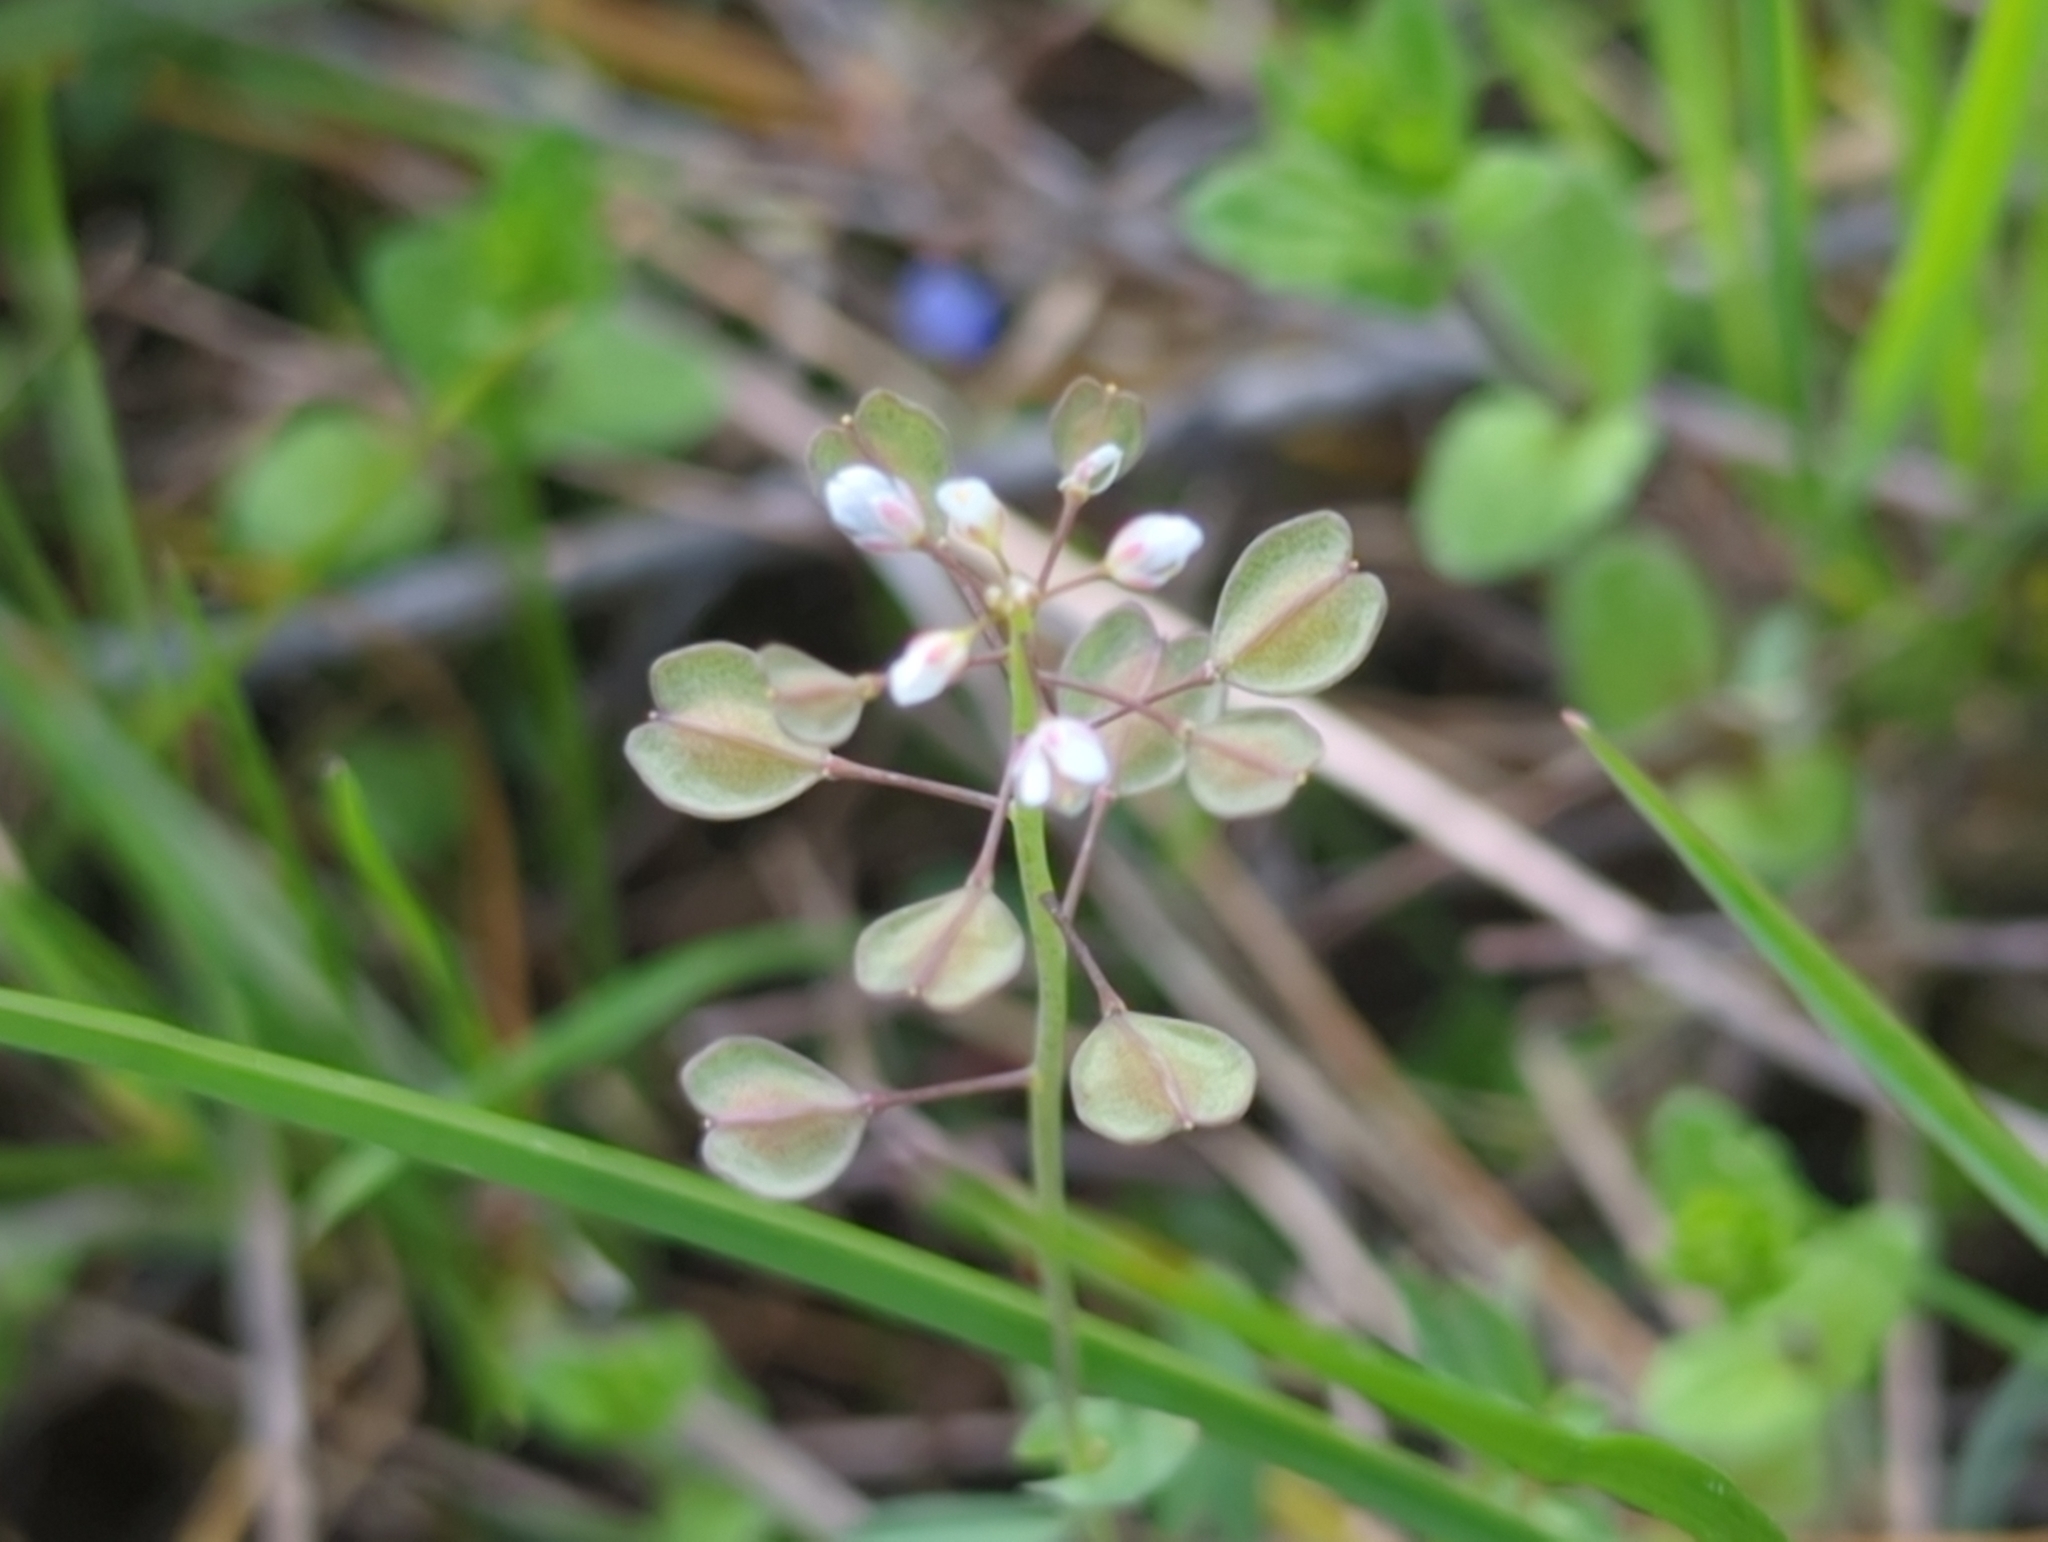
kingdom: Plantae
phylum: Tracheophyta
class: Magnoliopsida
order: Brassicales
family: Brassicaceae
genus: Noccaea
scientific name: Noccaea perfoliata
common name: Perfoliate pennycress
